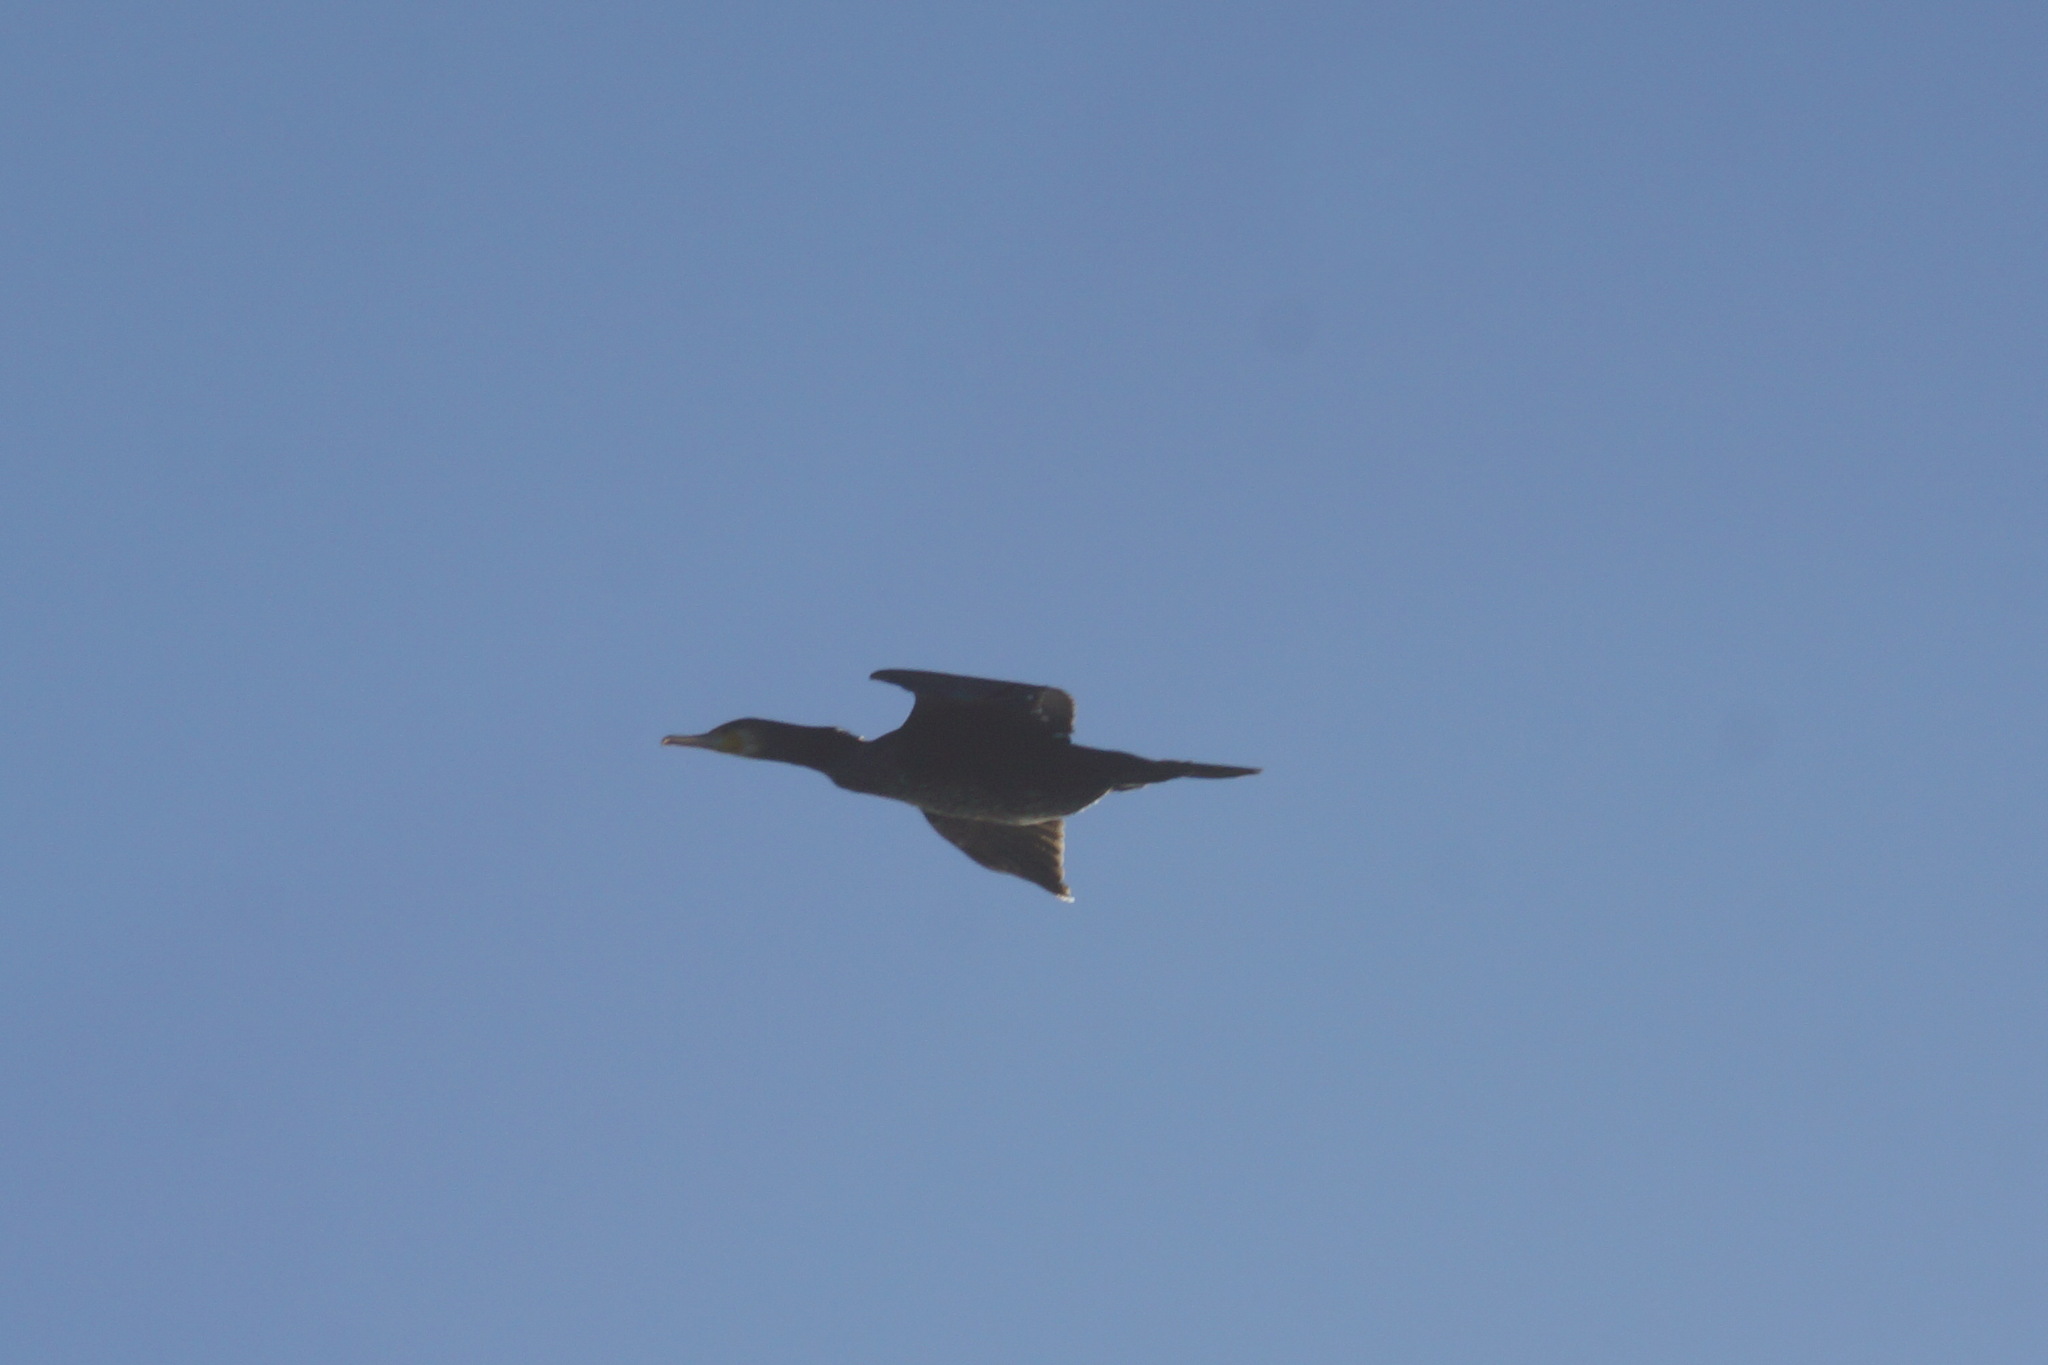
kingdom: Animalia
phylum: Chordata
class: Aves
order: Suliformes
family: Phalacrocoracidae
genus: Phalacrocorax
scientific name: Phalacrocorax carbo
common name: Great cormorant
